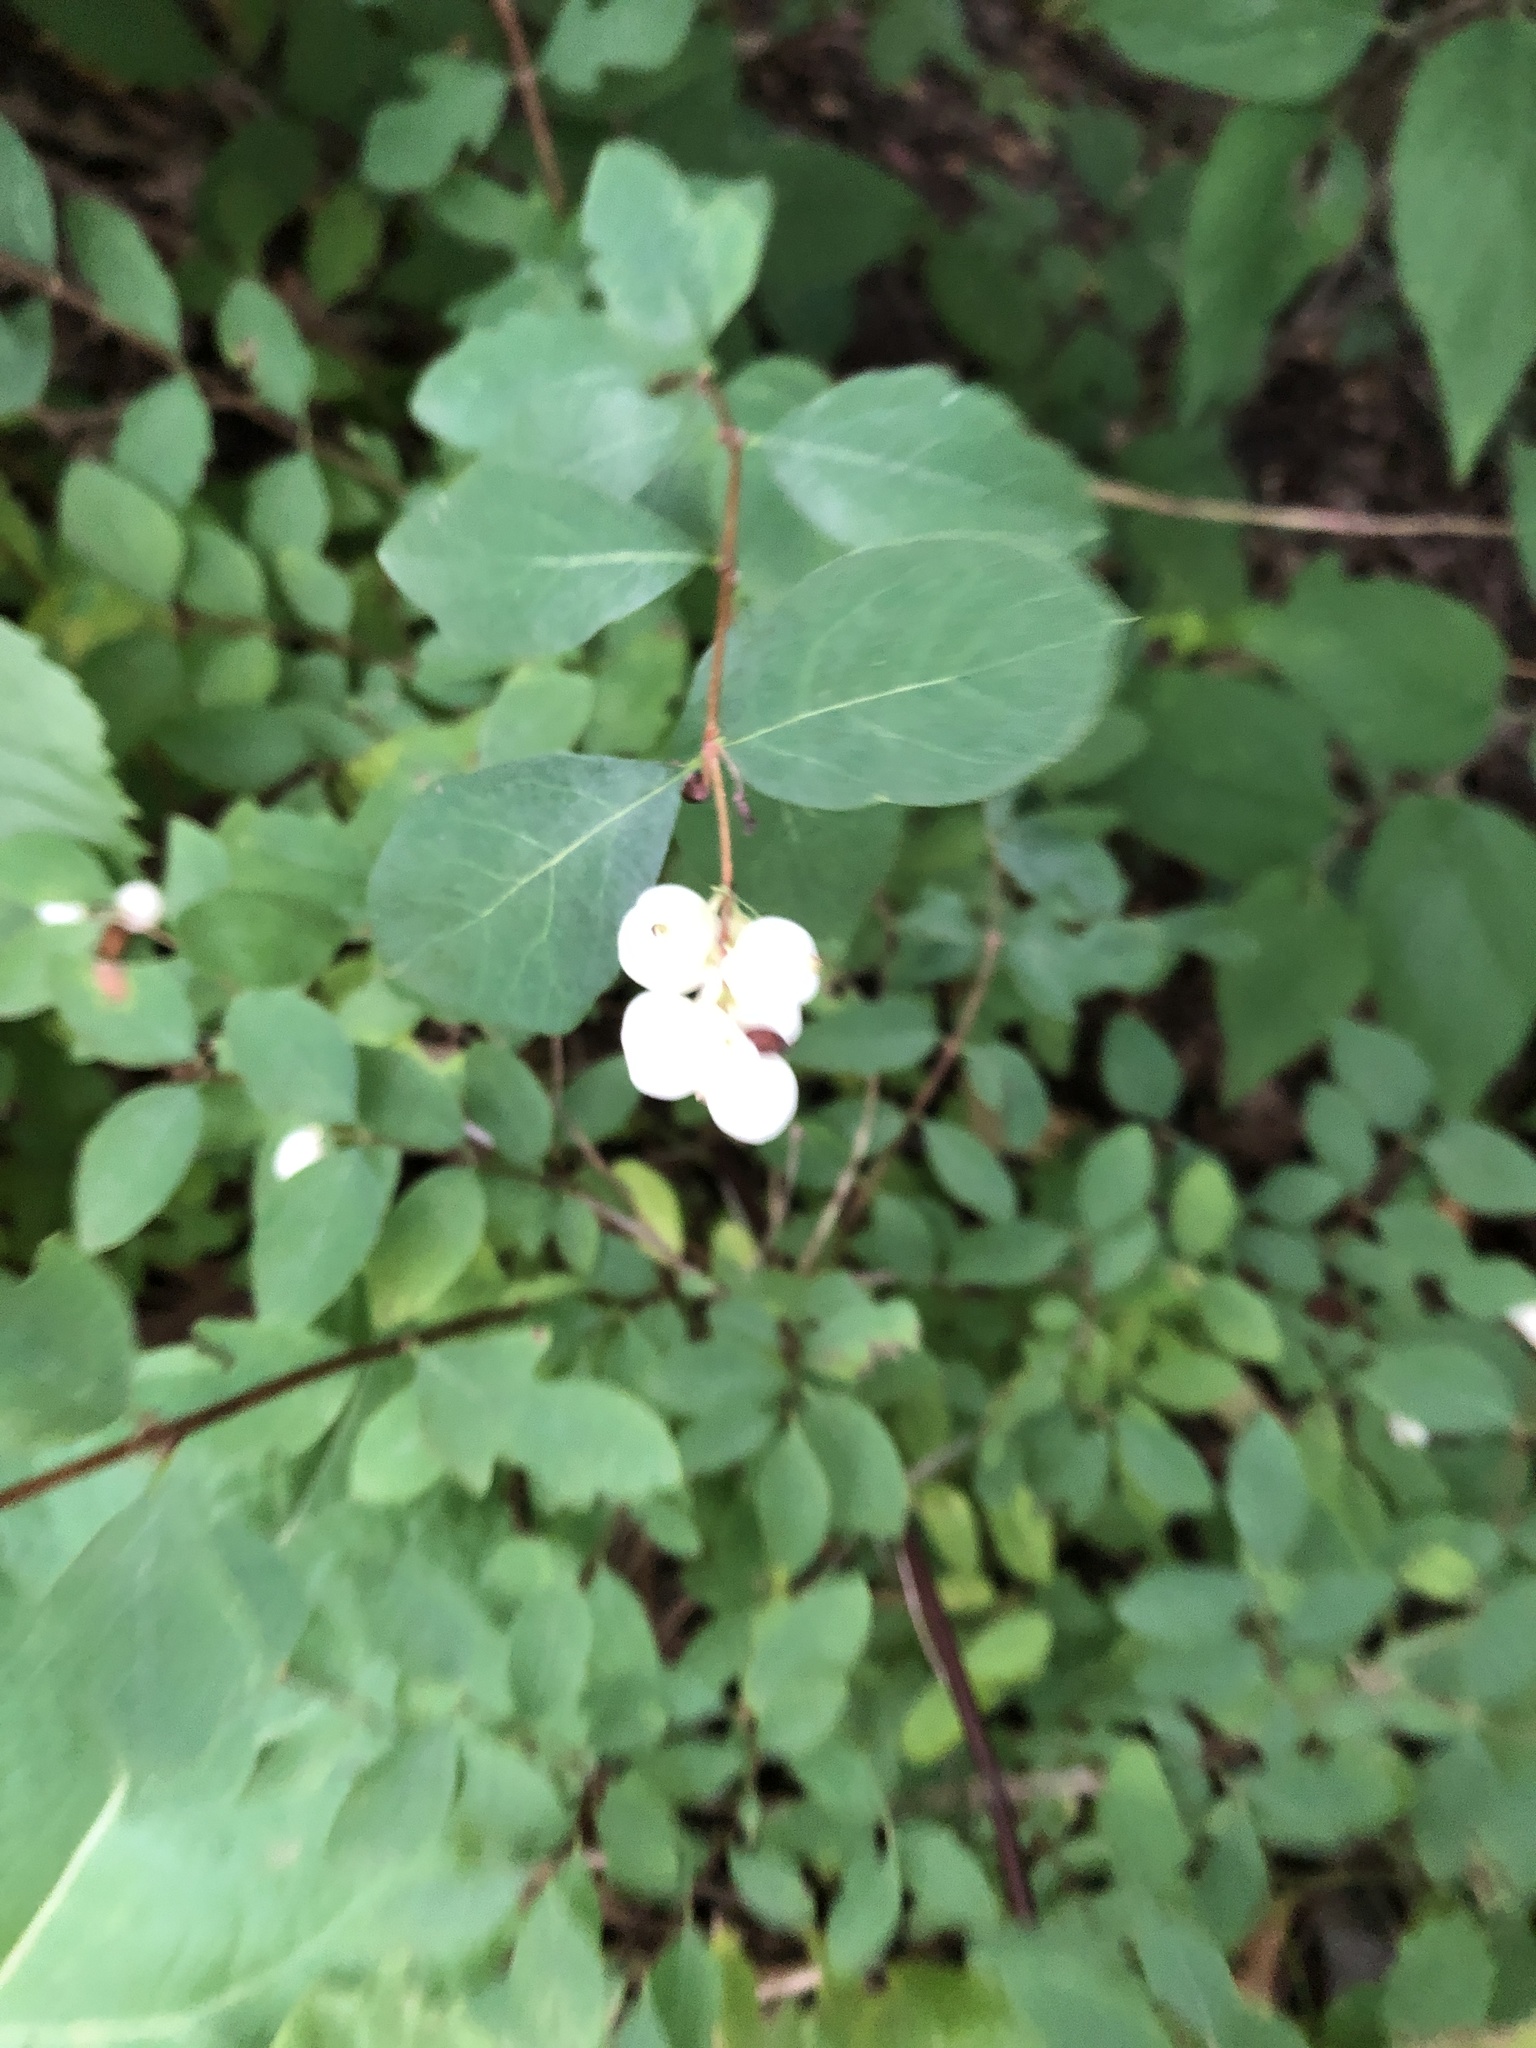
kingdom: Plantae
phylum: Tracheophyta
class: Magnoliopsida
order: Dipsacales
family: Caprifoliaceae
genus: Symphoricarpos
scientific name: Symphoricarpos albus
